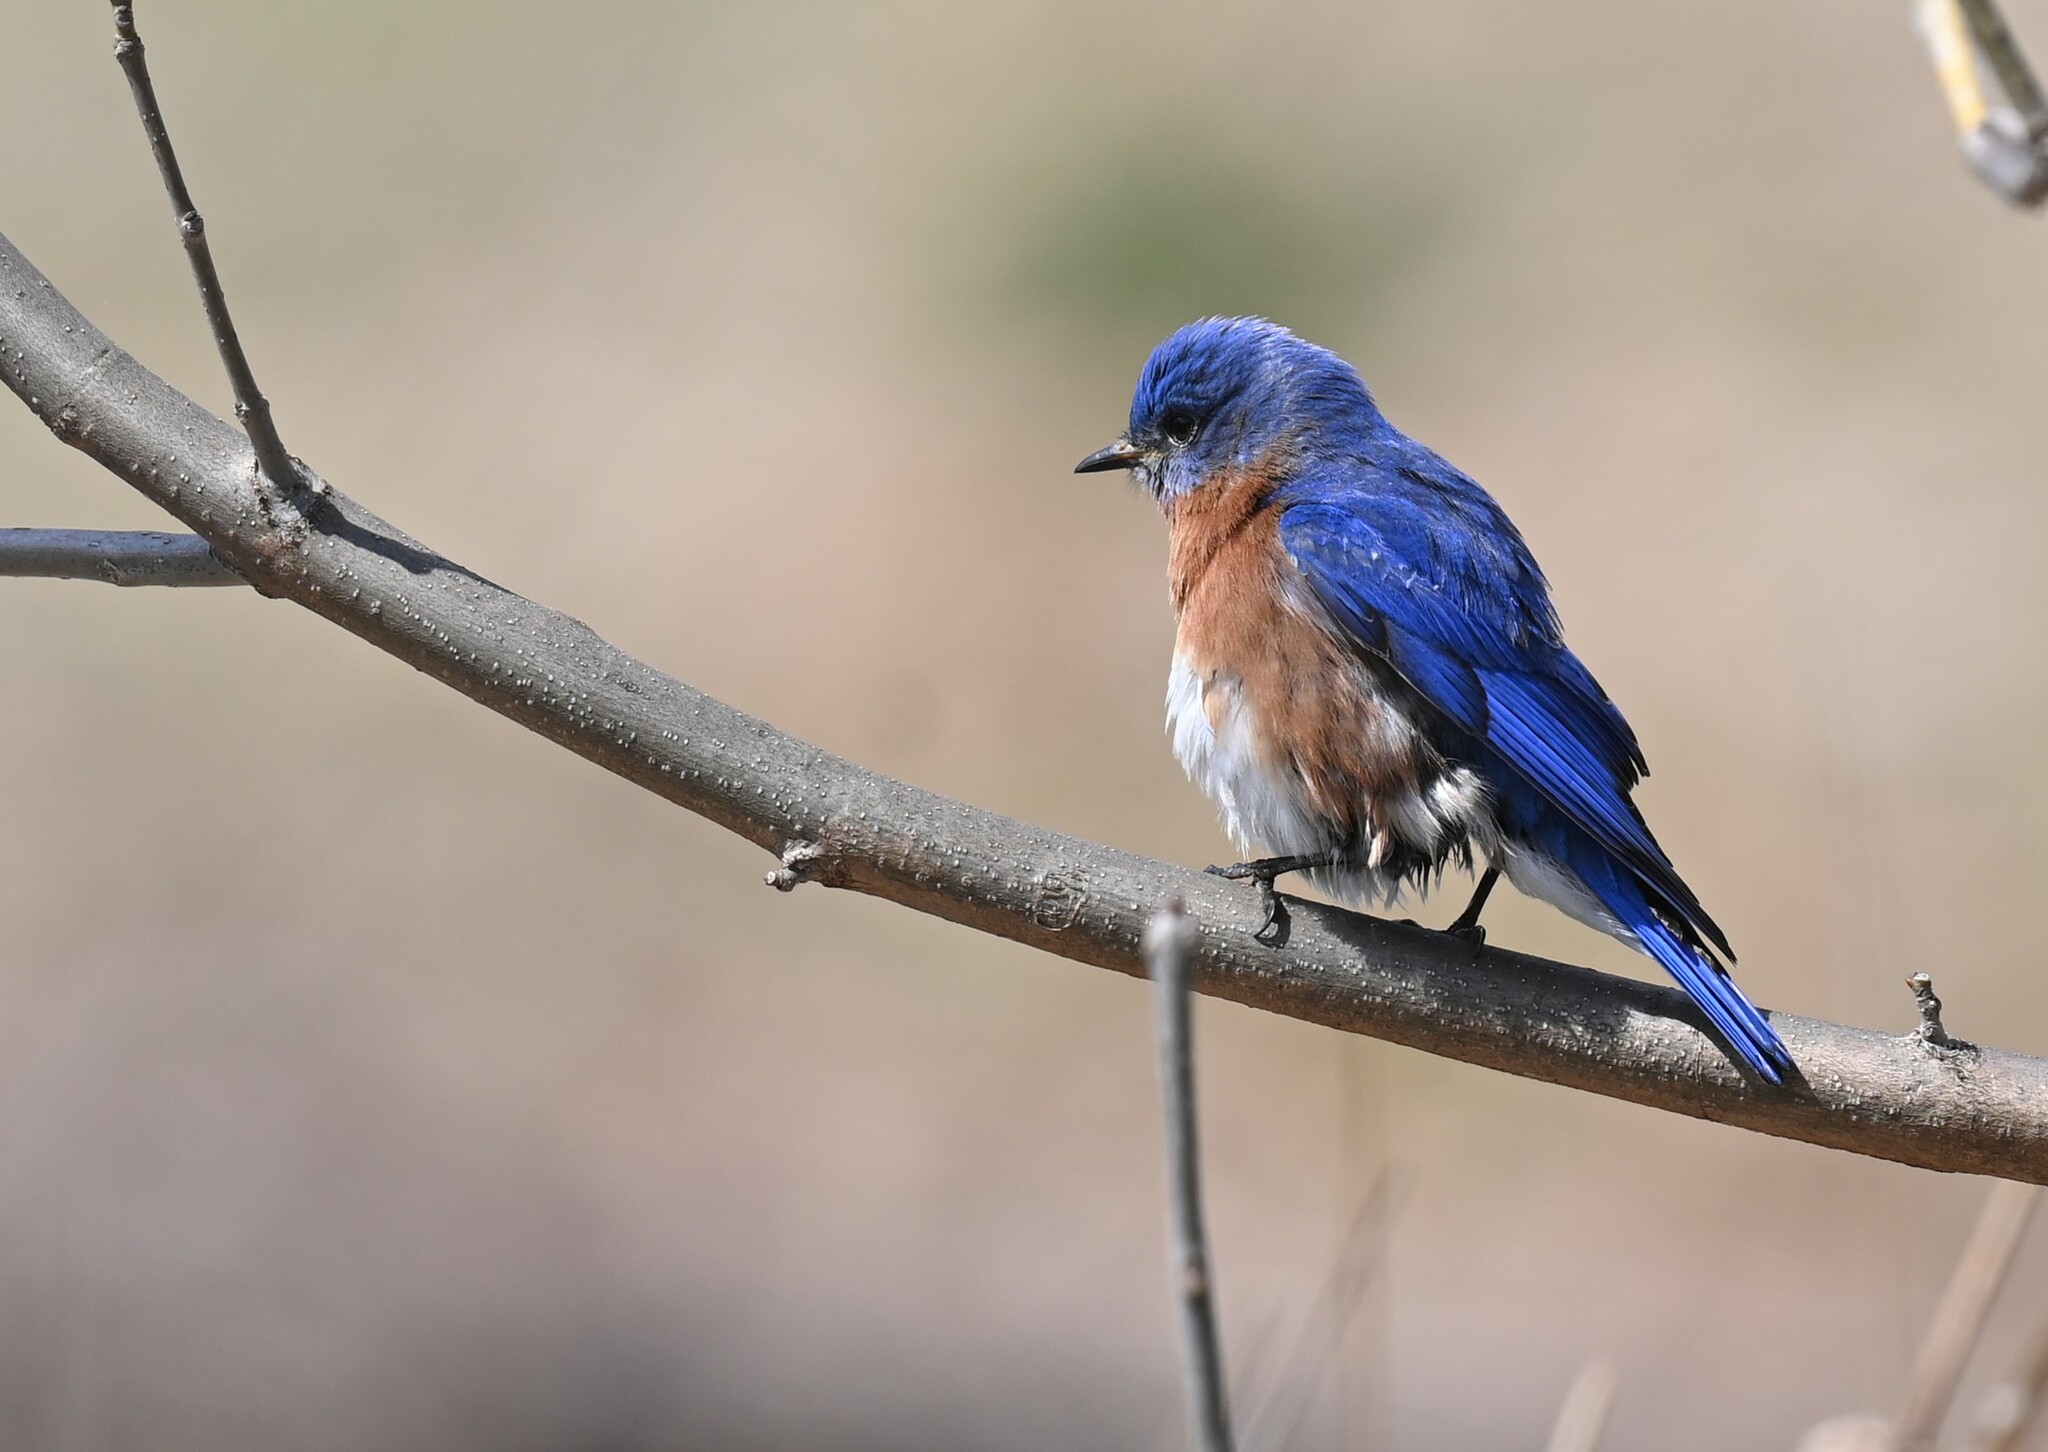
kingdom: Animalia
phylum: Chordata
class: Aves
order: Passeriformes
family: Turdidae
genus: Sialia
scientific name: Sialia sialis
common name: Eastern bluebird
